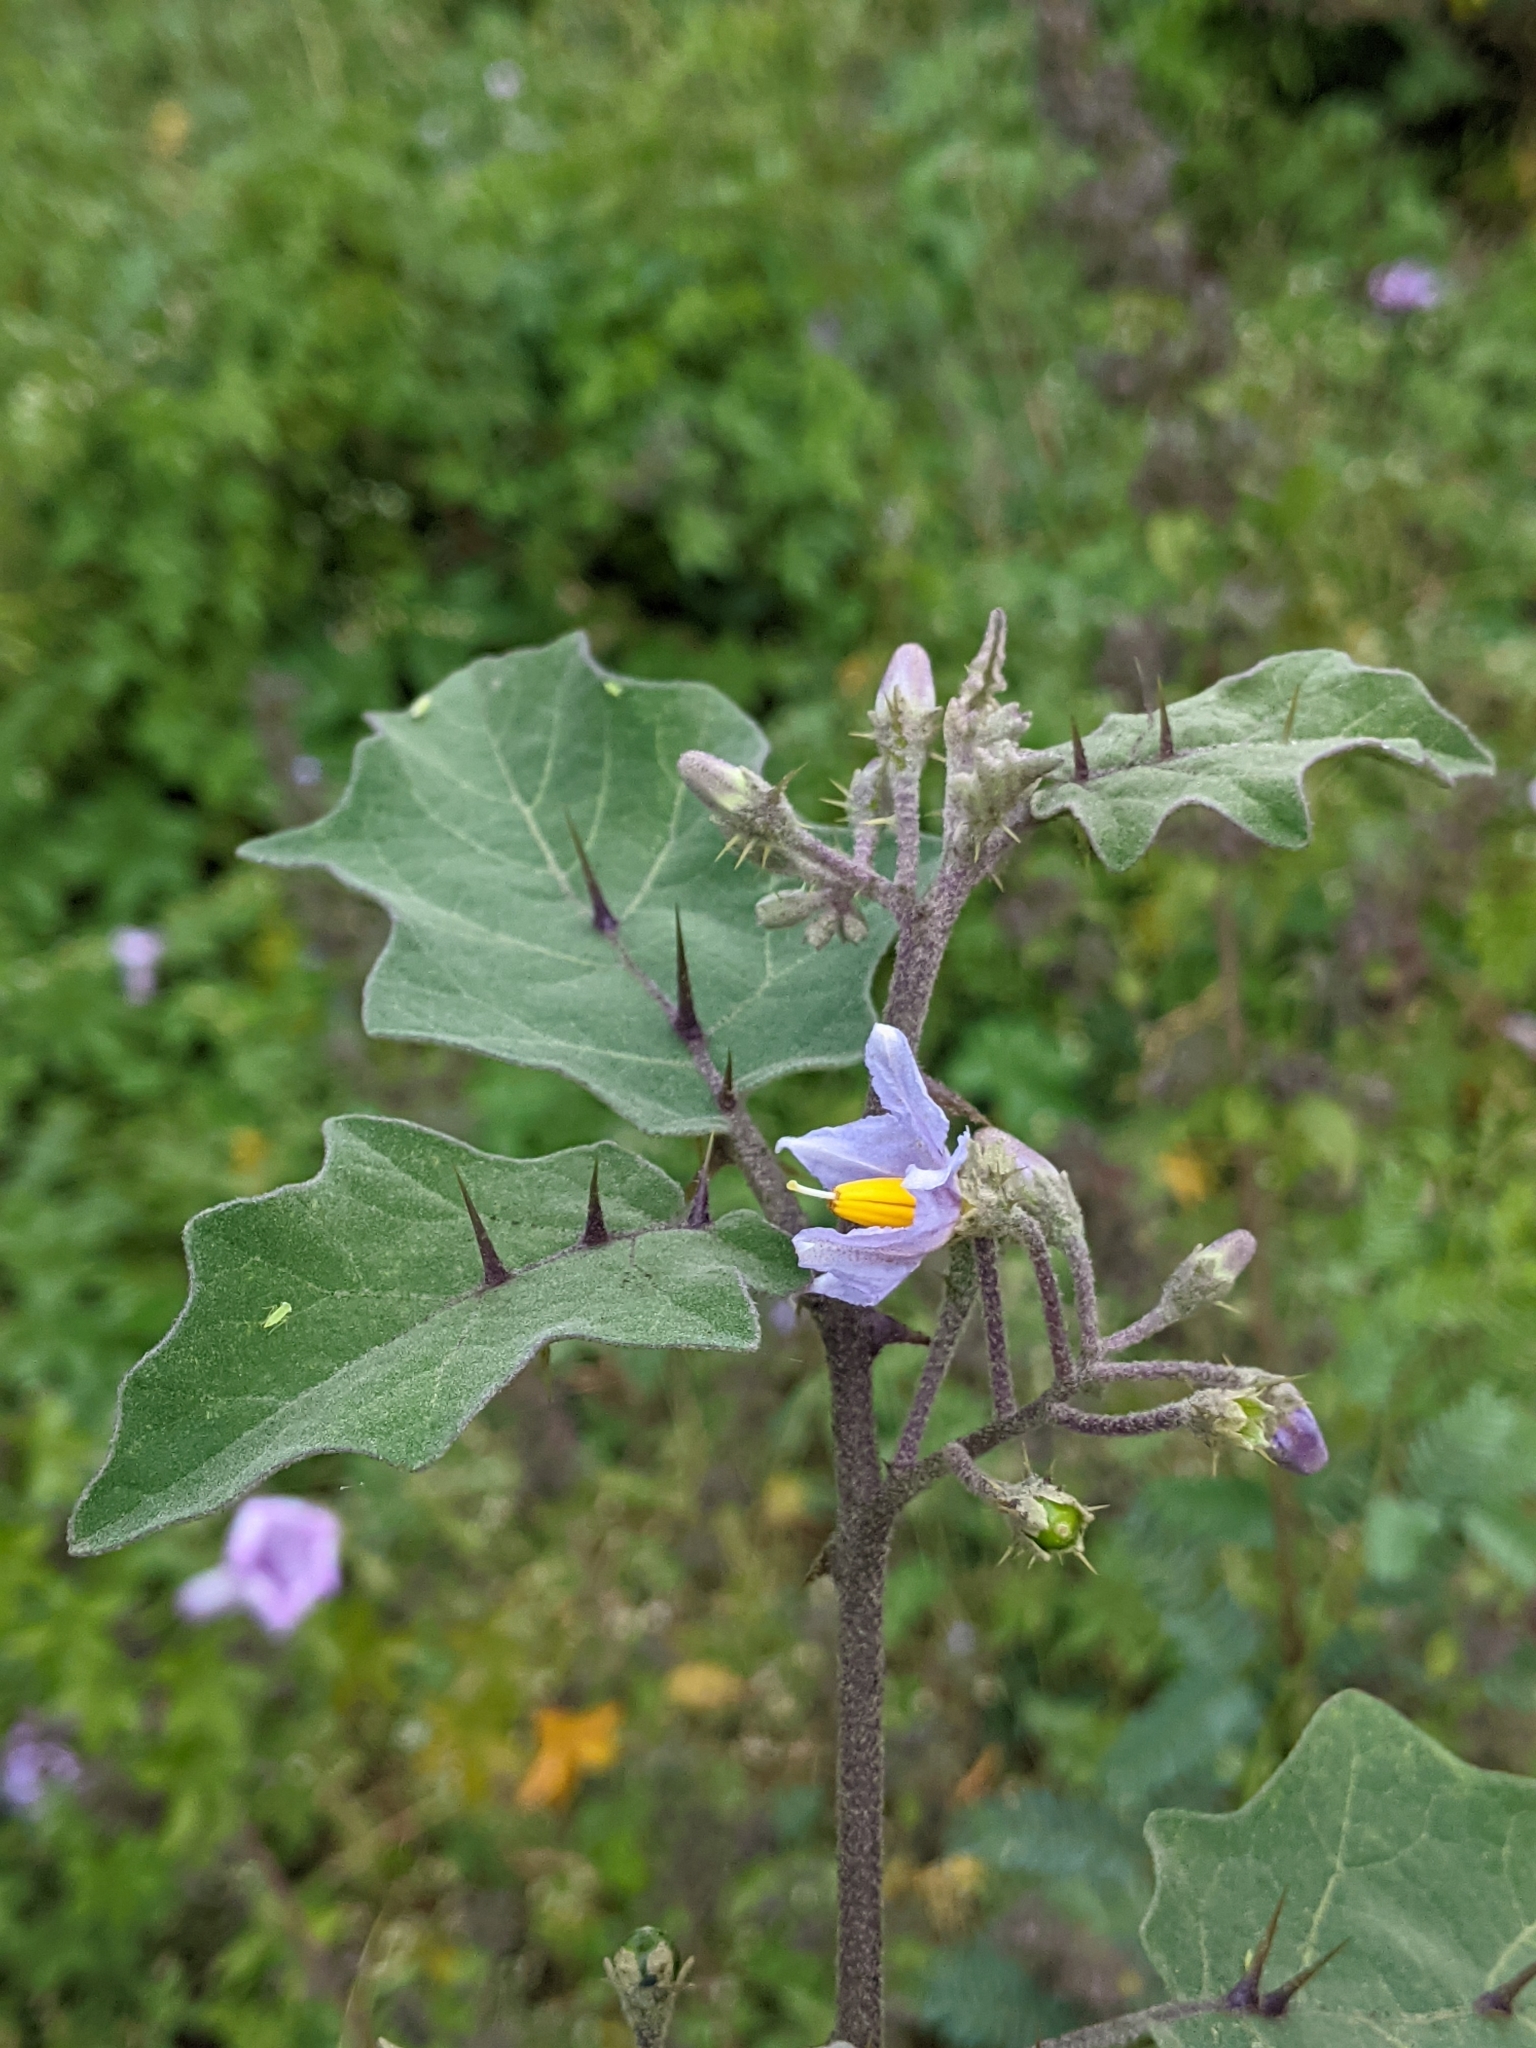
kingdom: Plantae
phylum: Tracheophyta
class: Magnoliopsida
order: Solanales
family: Solanaceae
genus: Solanum
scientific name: Solanum violaceum
